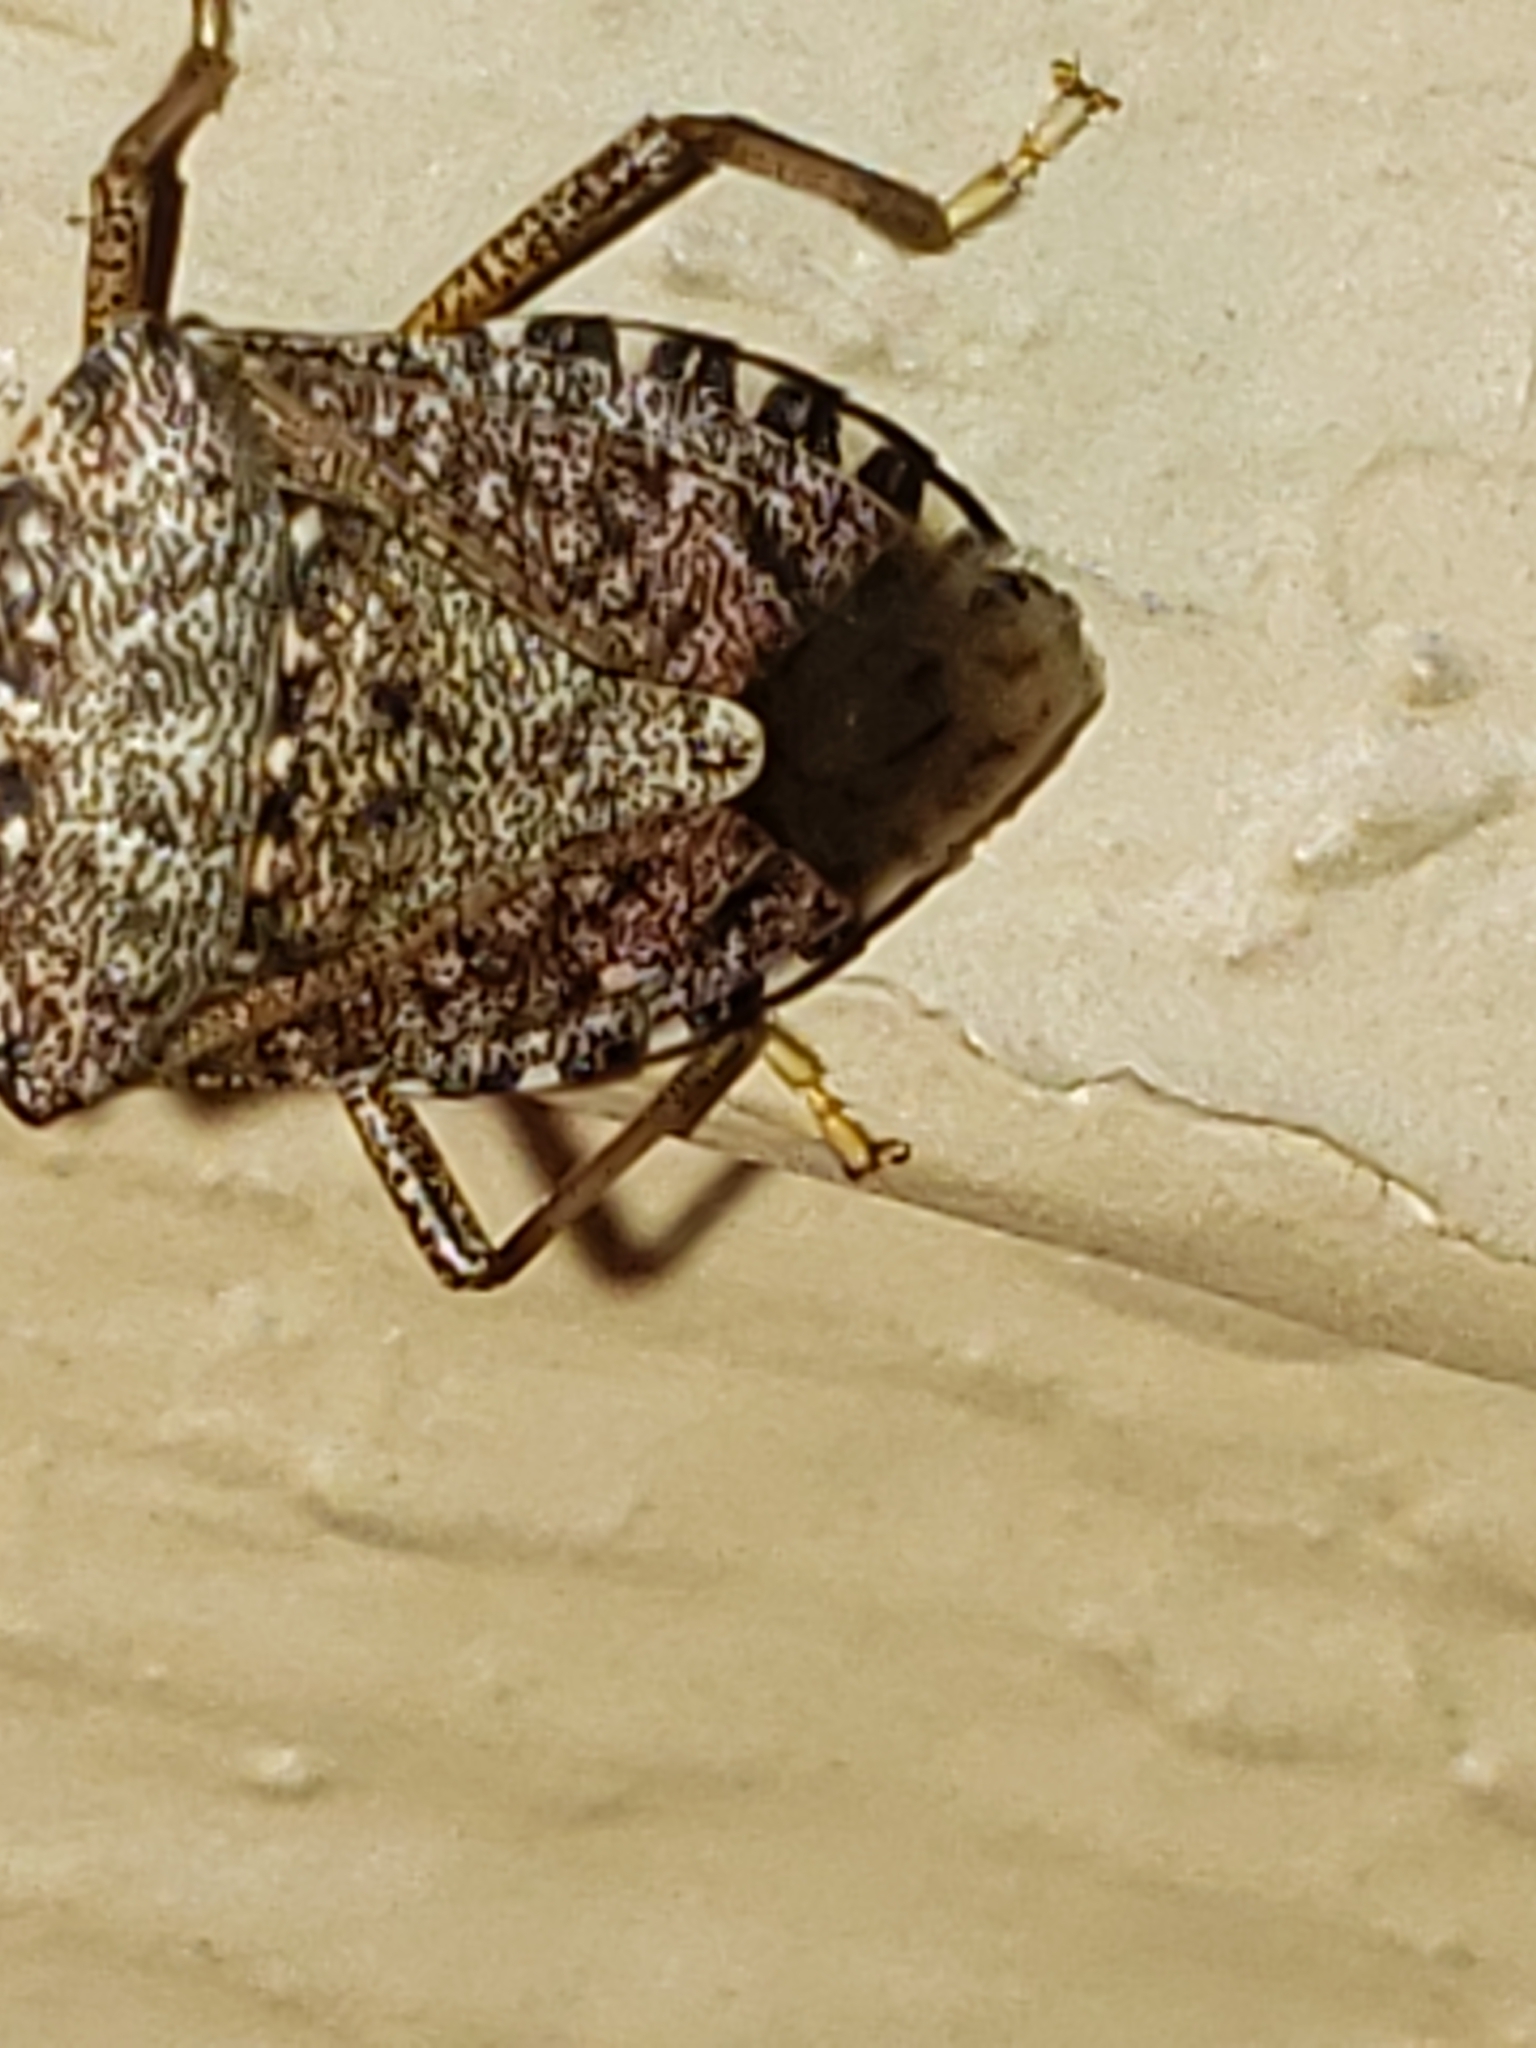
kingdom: Animalia
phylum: Arthropoda
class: Insecta
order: Hemiptera
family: Pentatomidae
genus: Halyomorpha
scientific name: Halyomorpha halys
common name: Brown marmorated stink bug
